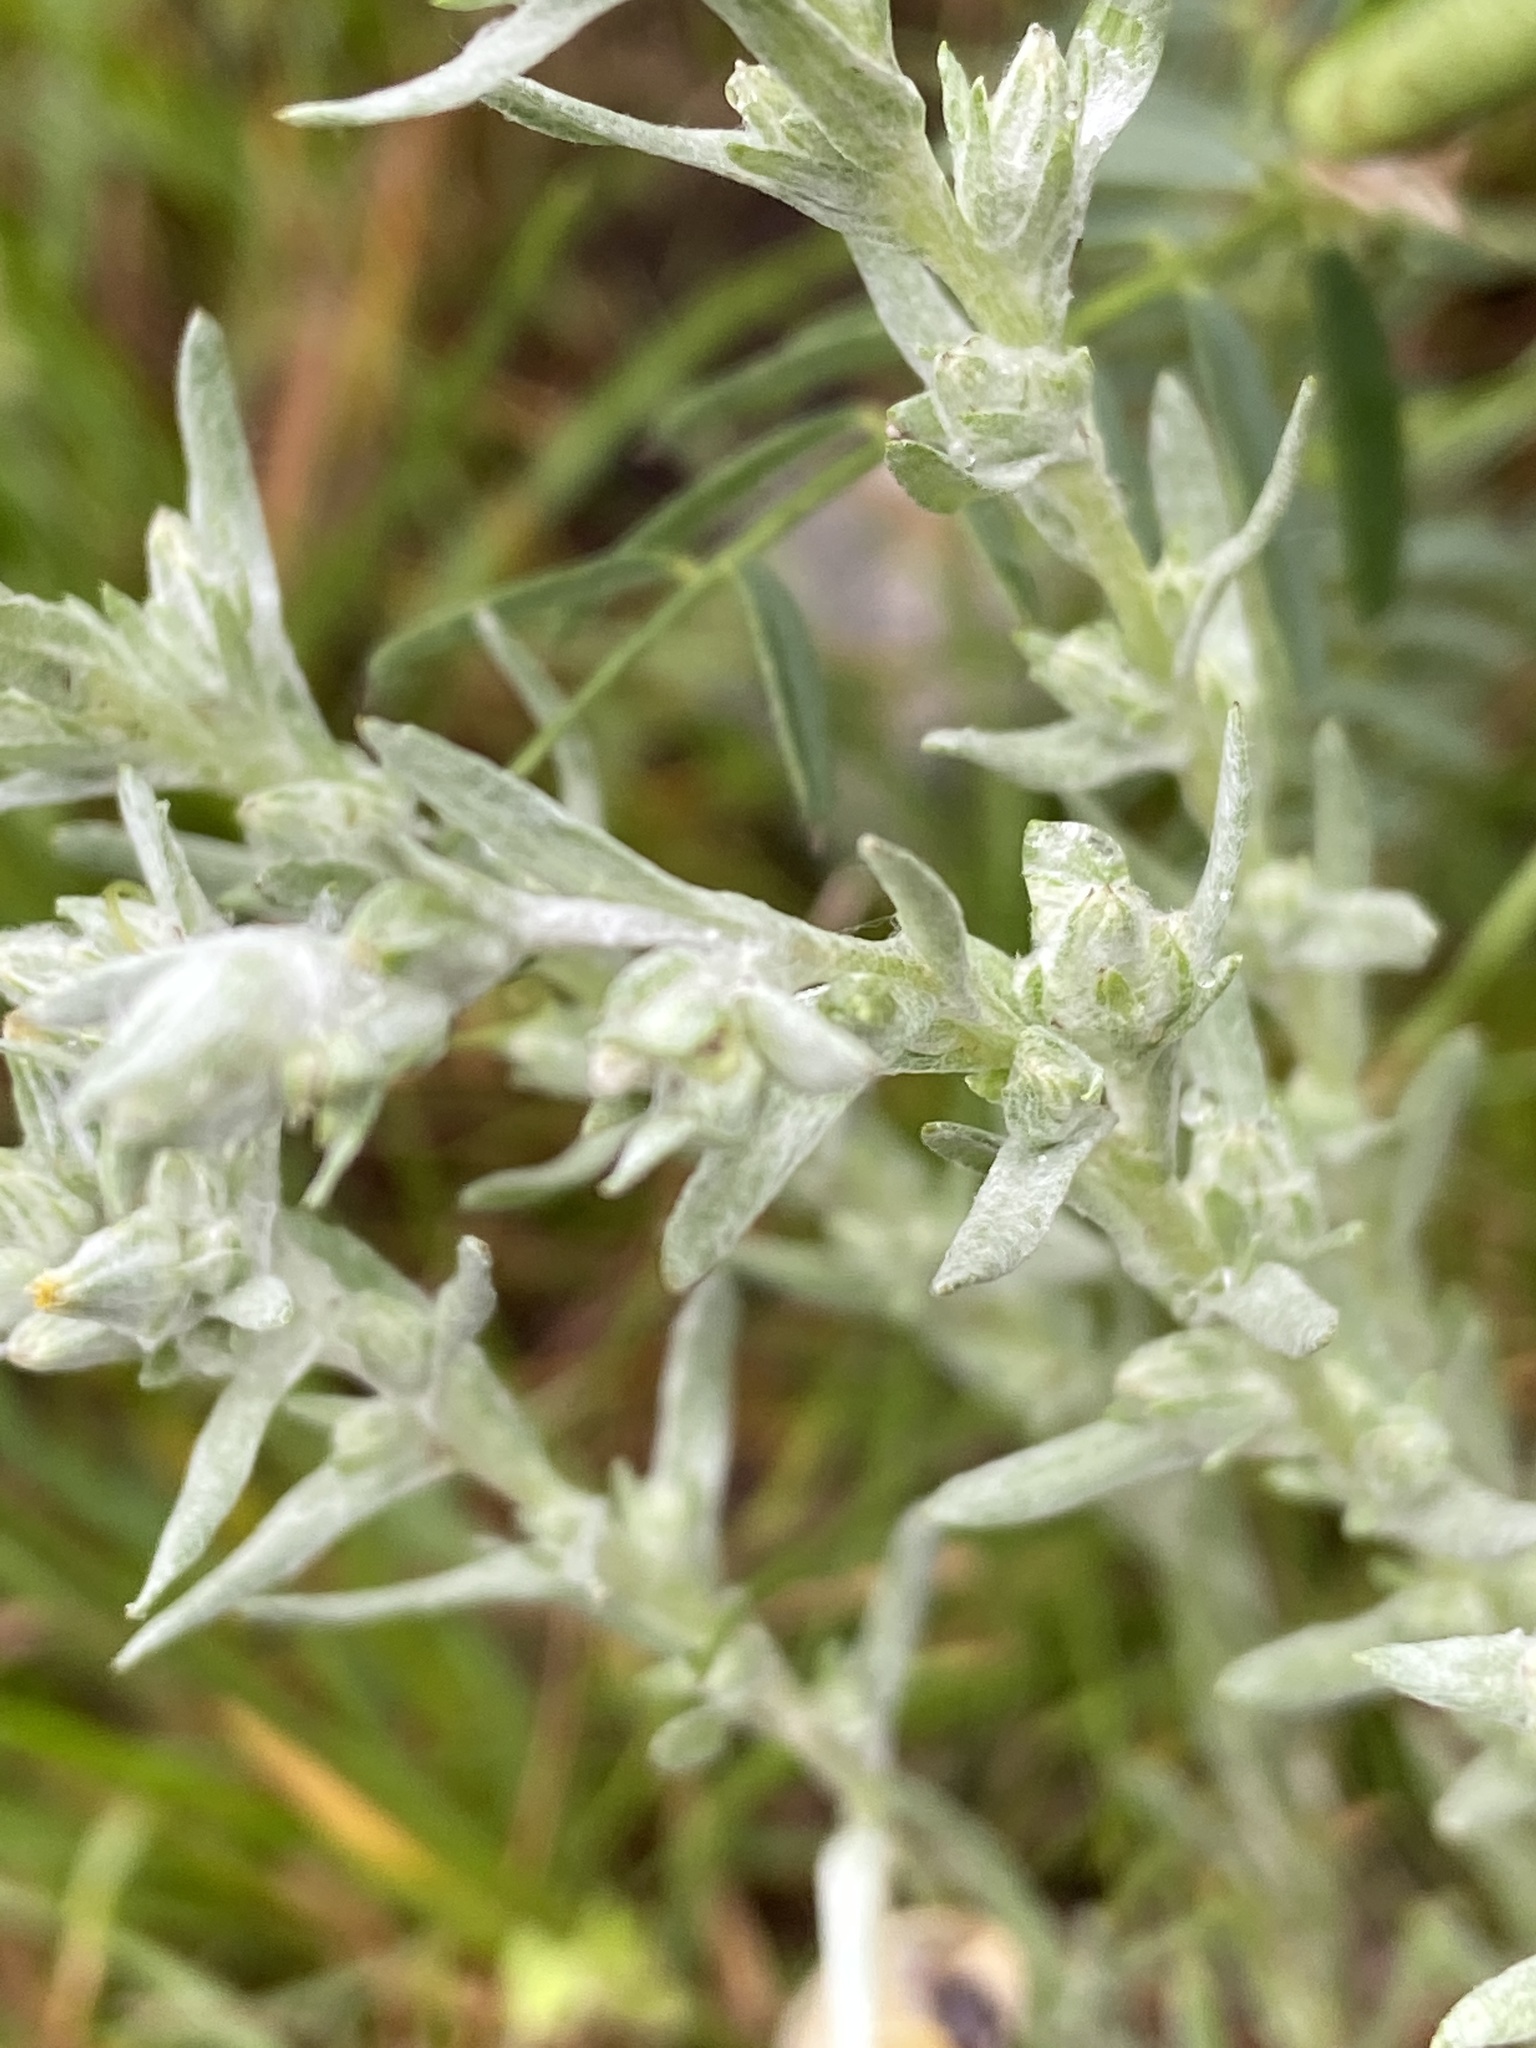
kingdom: Plantae
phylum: Tracheophyta
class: Magnoliopsida
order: Asterales
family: Asteraceae
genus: Filago
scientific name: Filago arvensis
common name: Field cudweed
